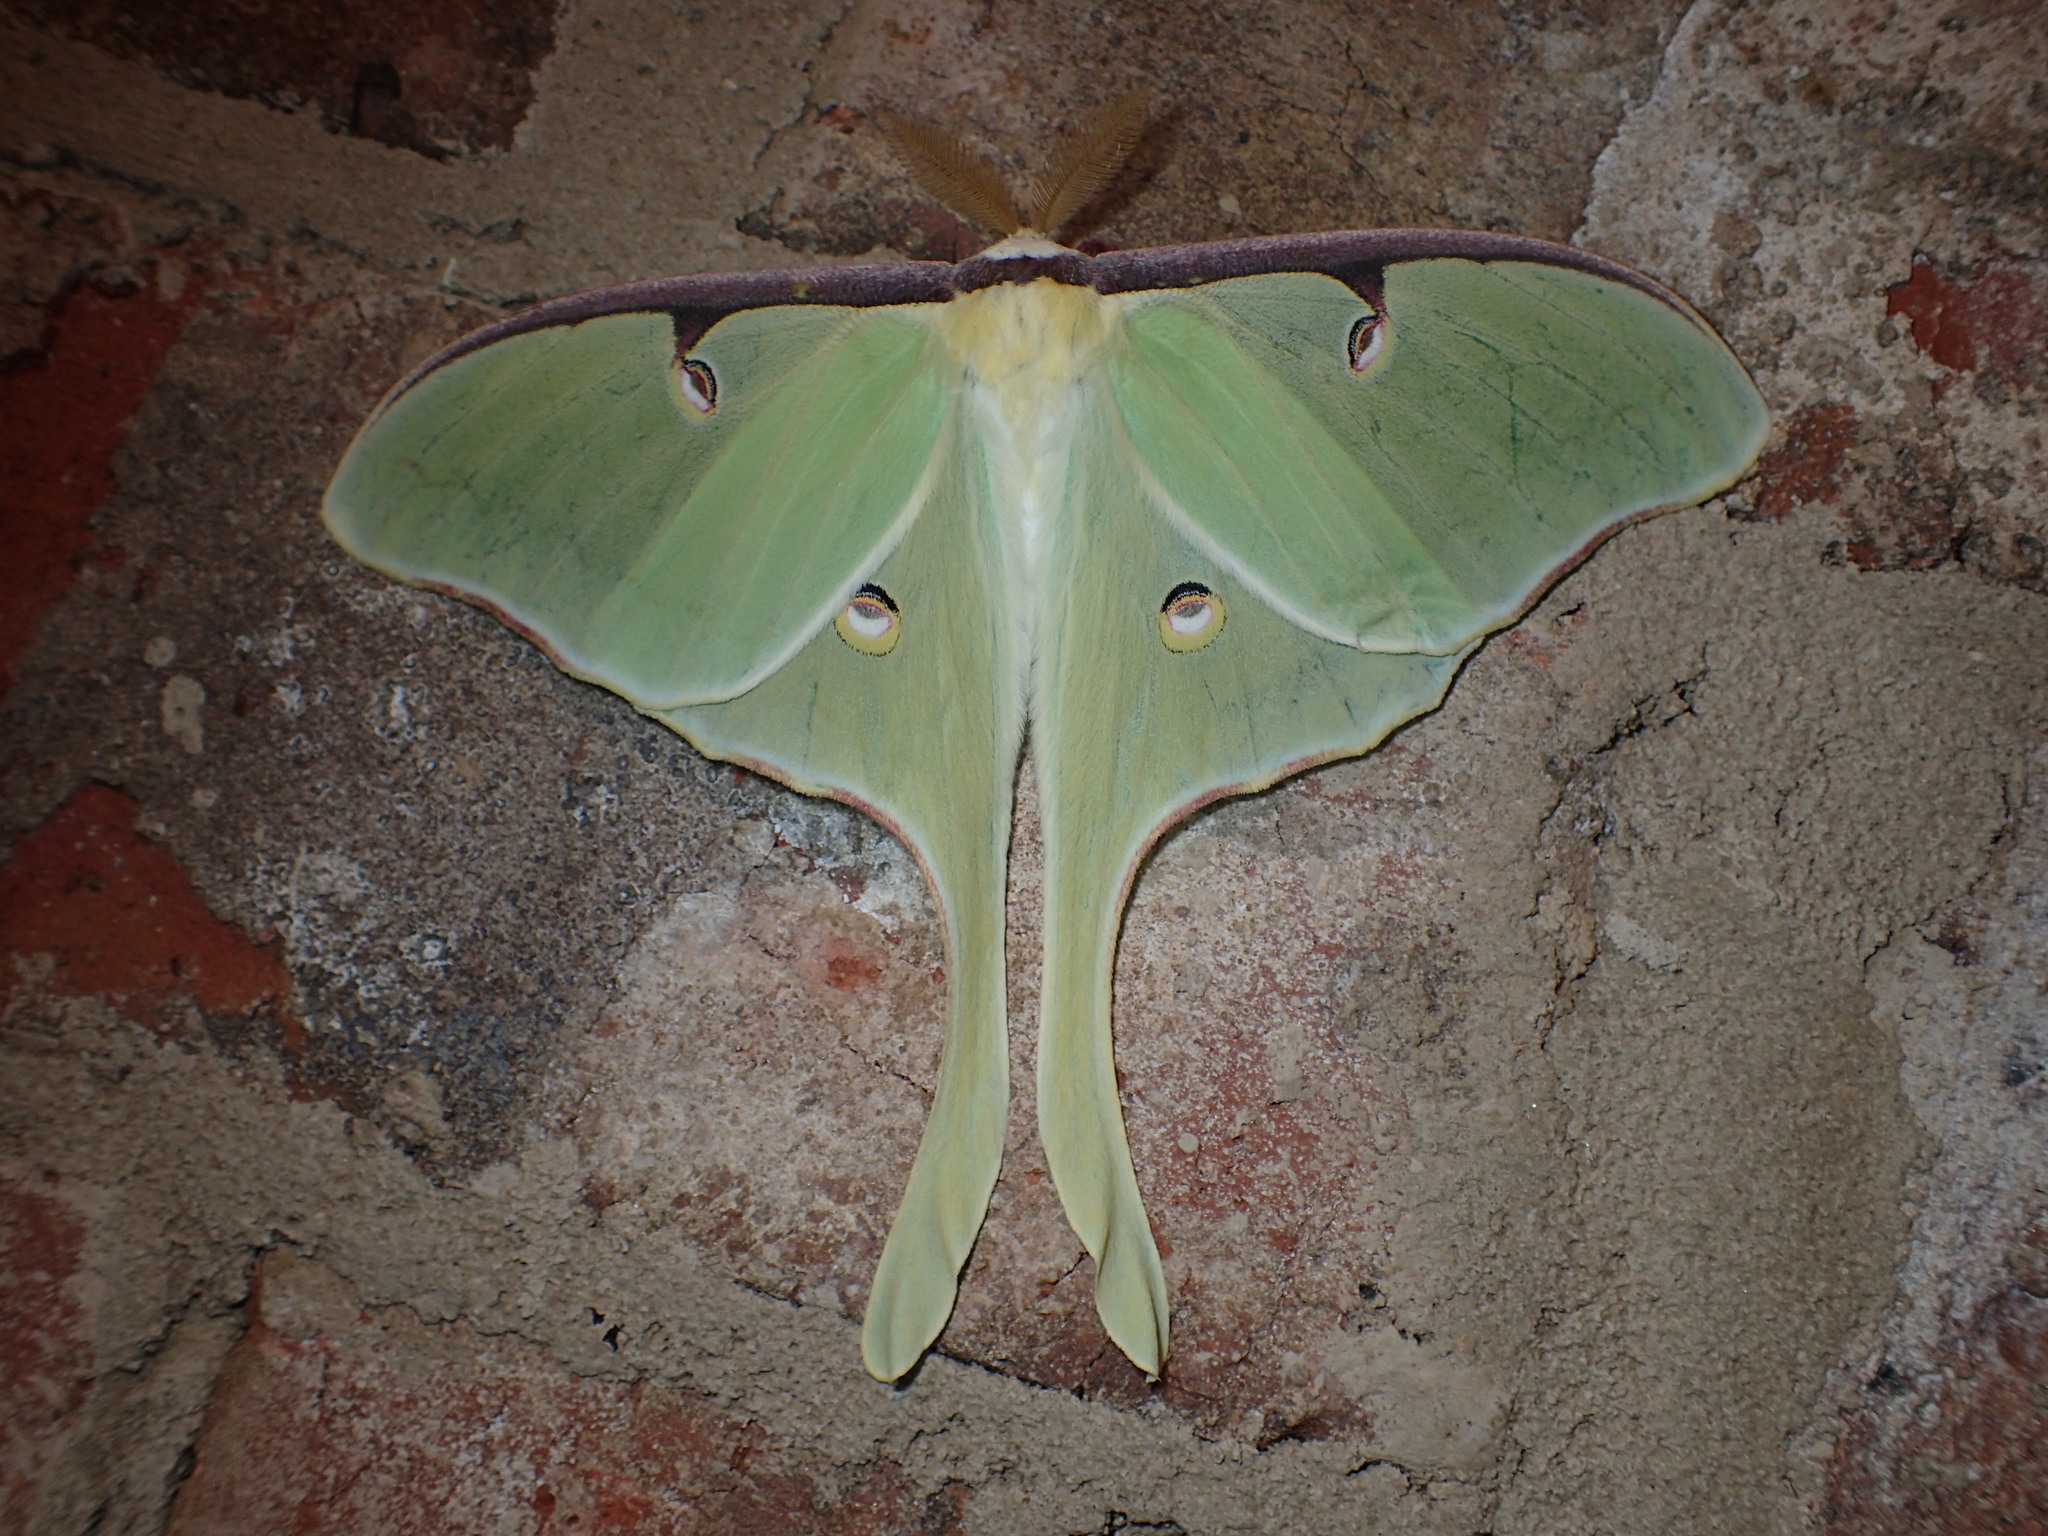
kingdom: Animalia
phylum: Arthropoda
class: Insecta
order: Lepidoptera
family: Saturniidae
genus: Actias
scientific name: Actias luna
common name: Luna moth
